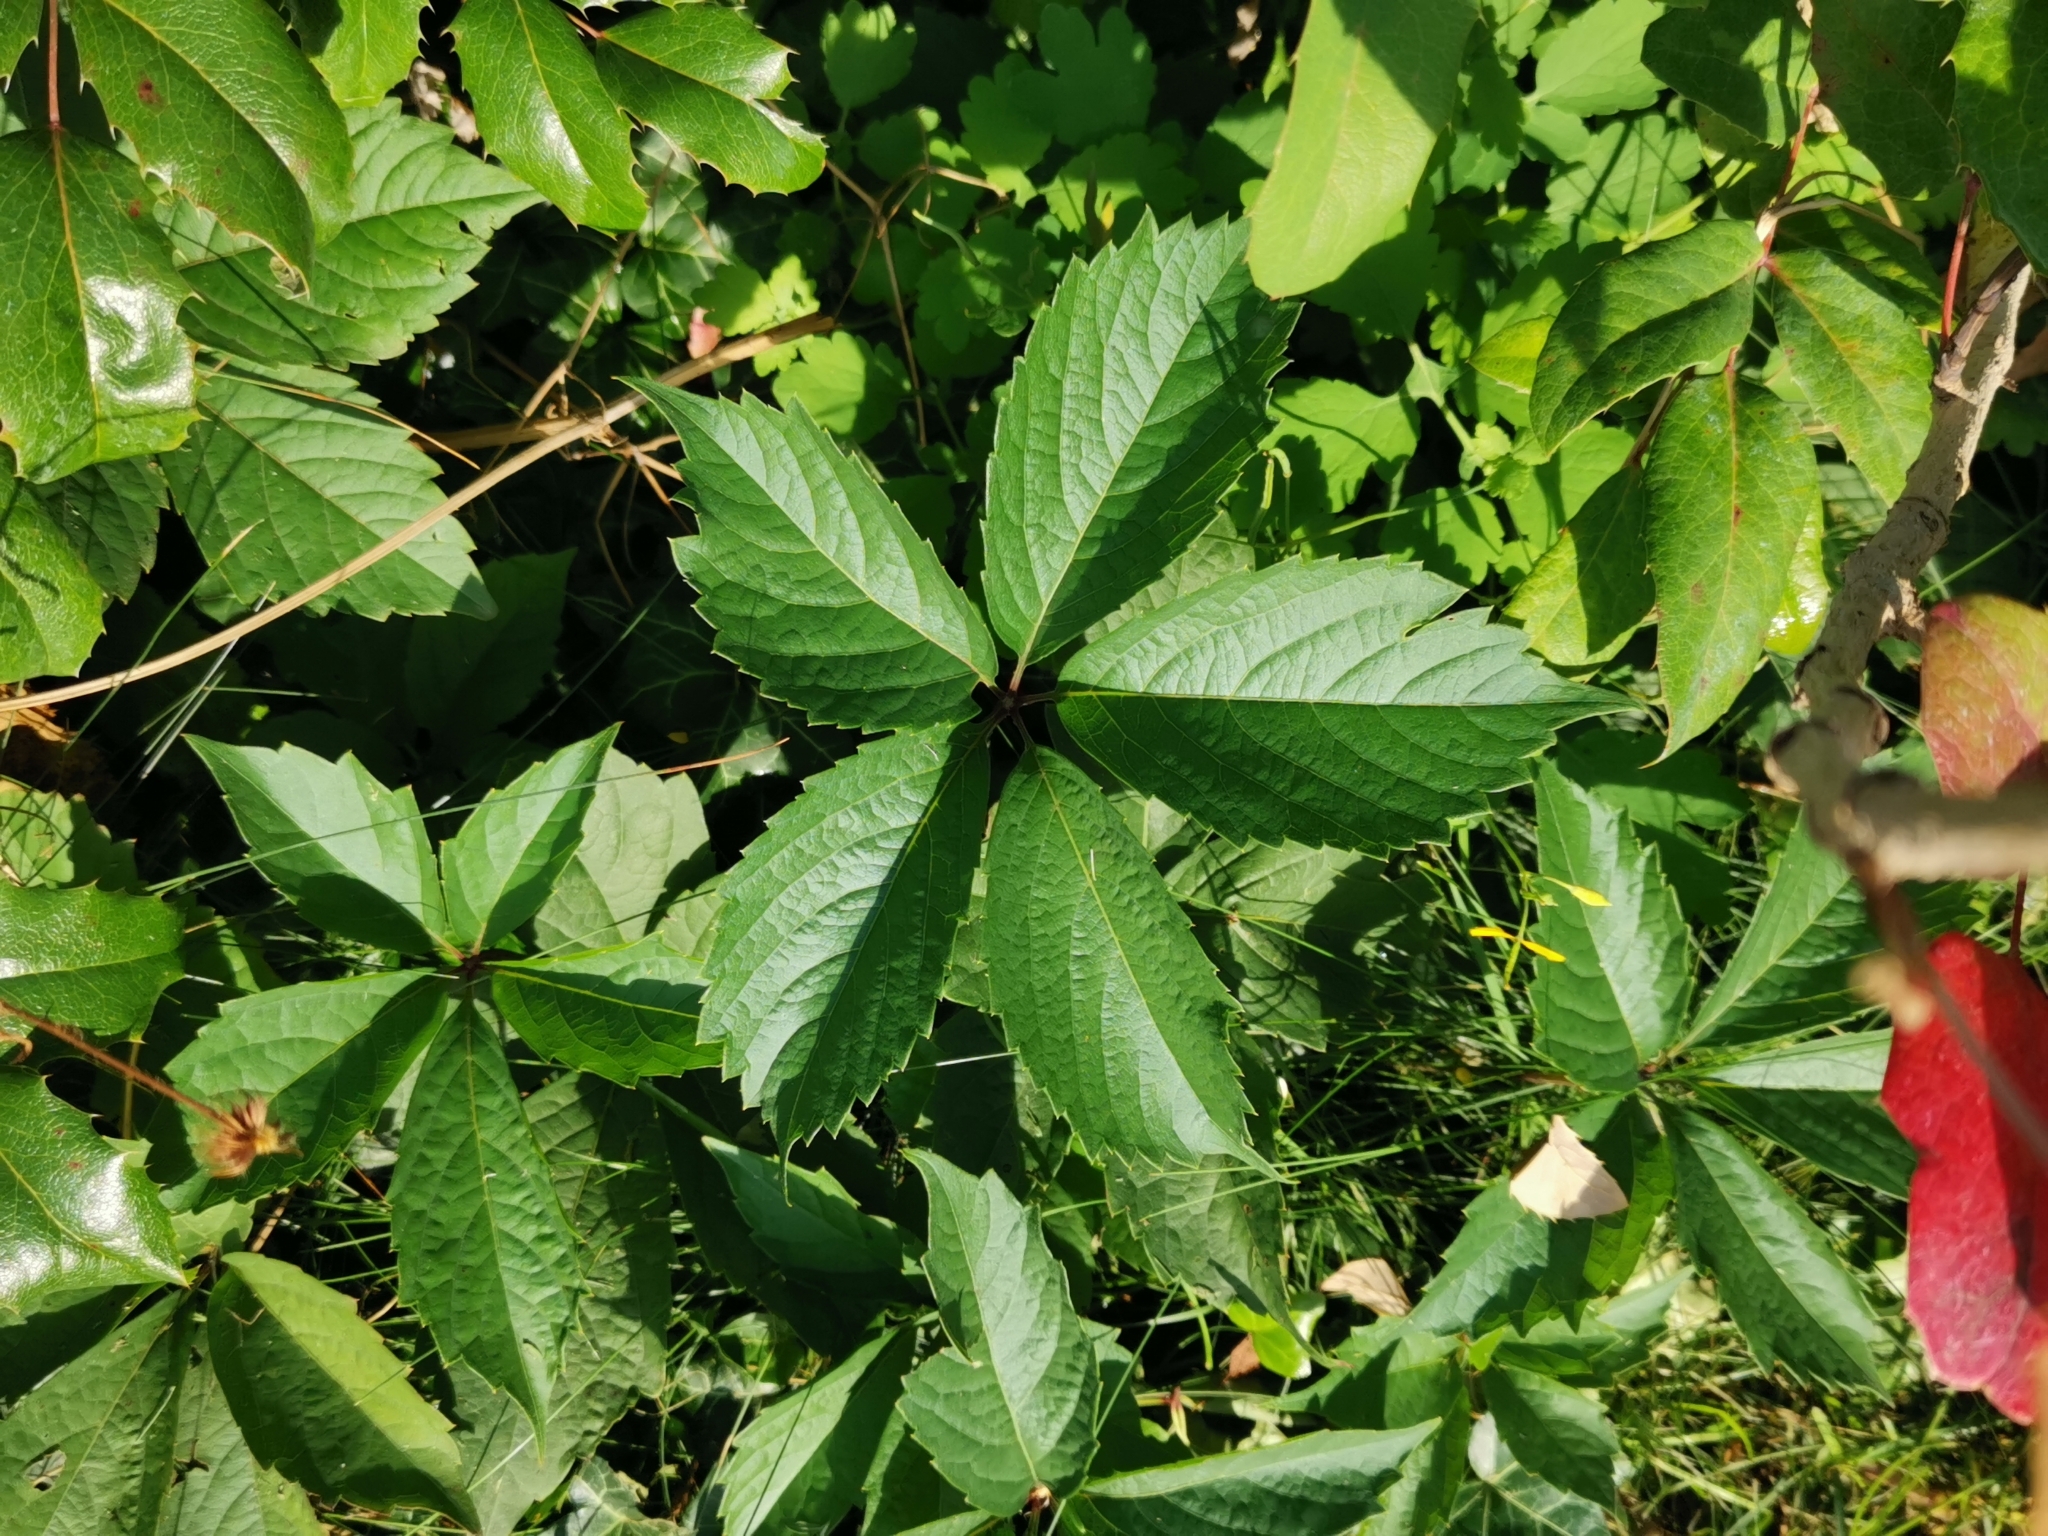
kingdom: Plantae
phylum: Tracheophyta
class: Magnoliopsida
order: Vitales
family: Vitaceae
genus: Parthenocissus
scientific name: Parthenocissus inserta
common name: False virginia-creeper
